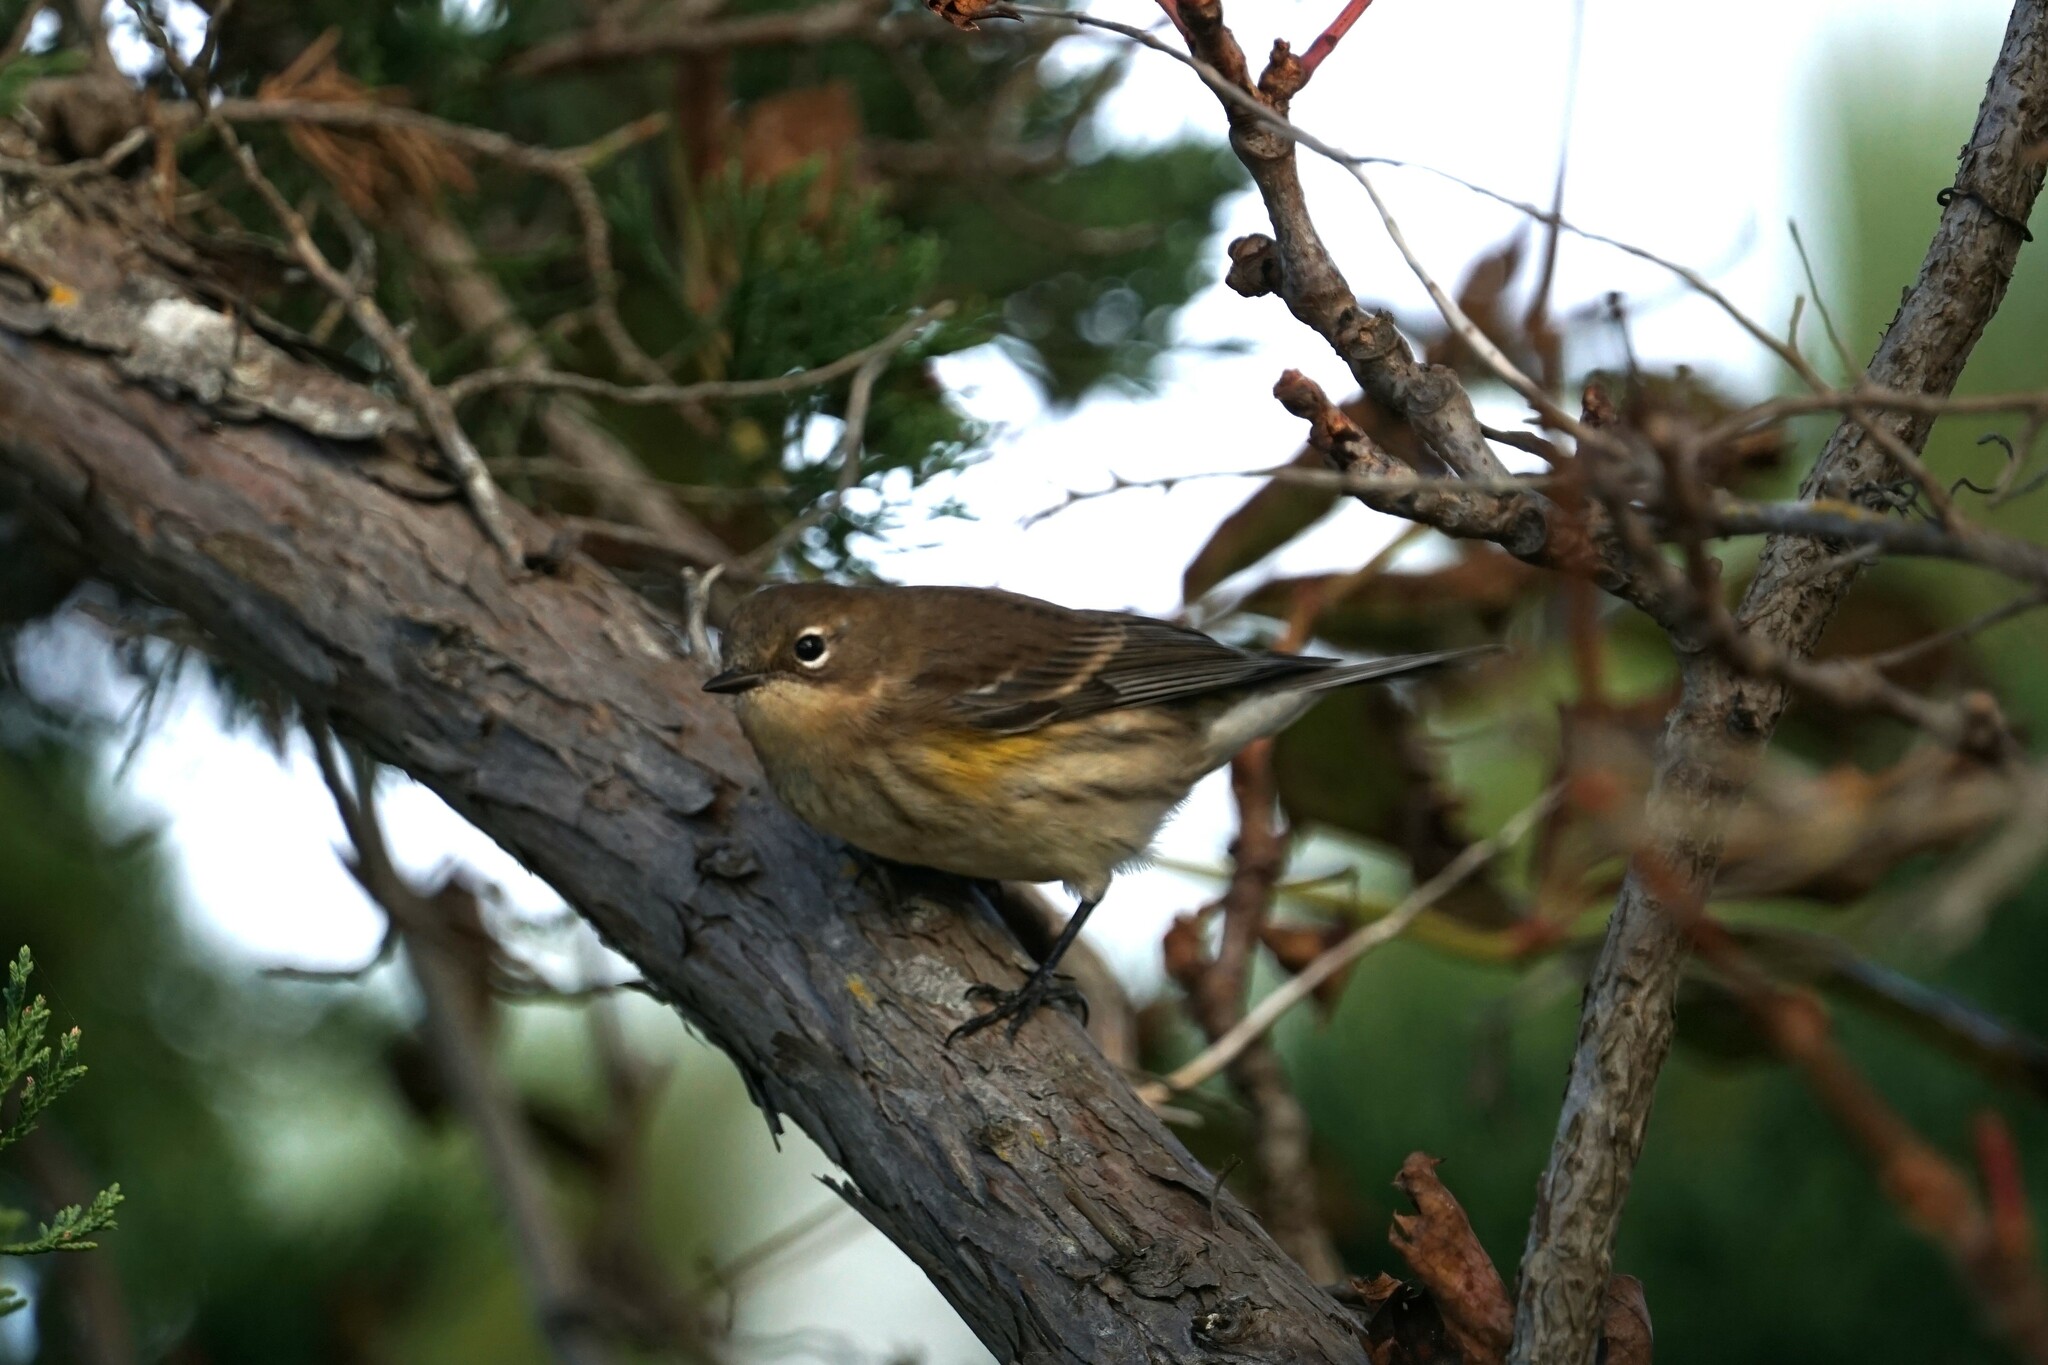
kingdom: Animalia
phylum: Chordata
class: Aves
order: Passeriformes
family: Parulidae
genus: Setophaga
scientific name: Setophaga coronata
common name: Myrtle warbler
